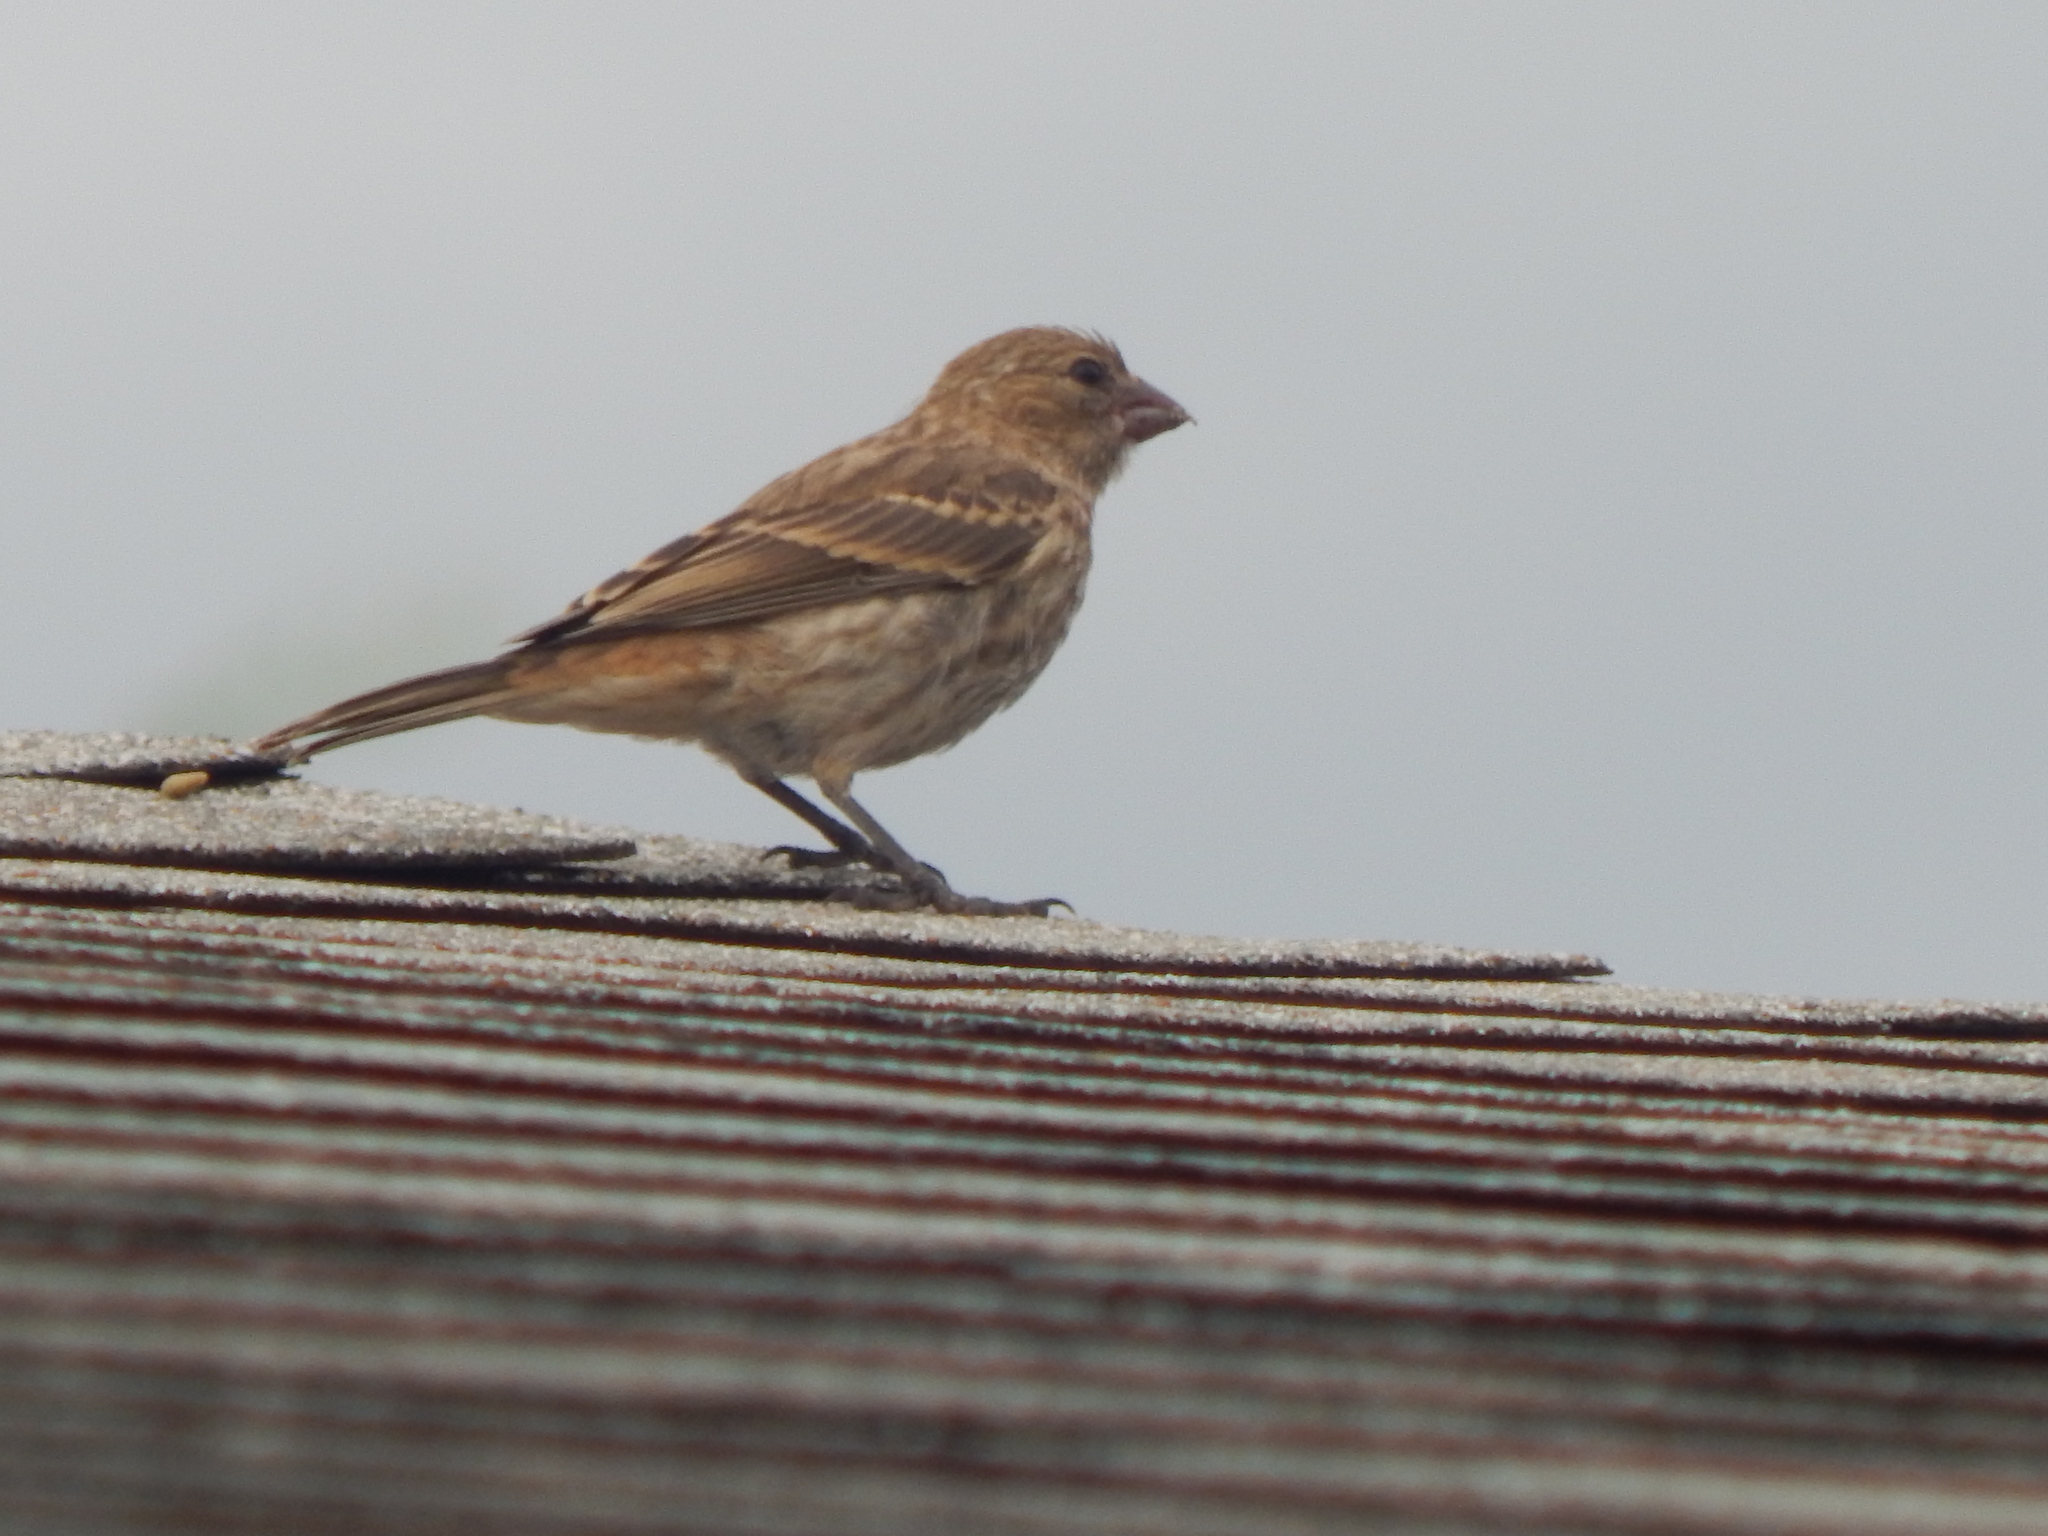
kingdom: Animalia
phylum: Chordata
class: Aves
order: Passeriformes
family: Fringillidae
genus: Haemorhous
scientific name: Haemorhous mexicanus
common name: House finch
